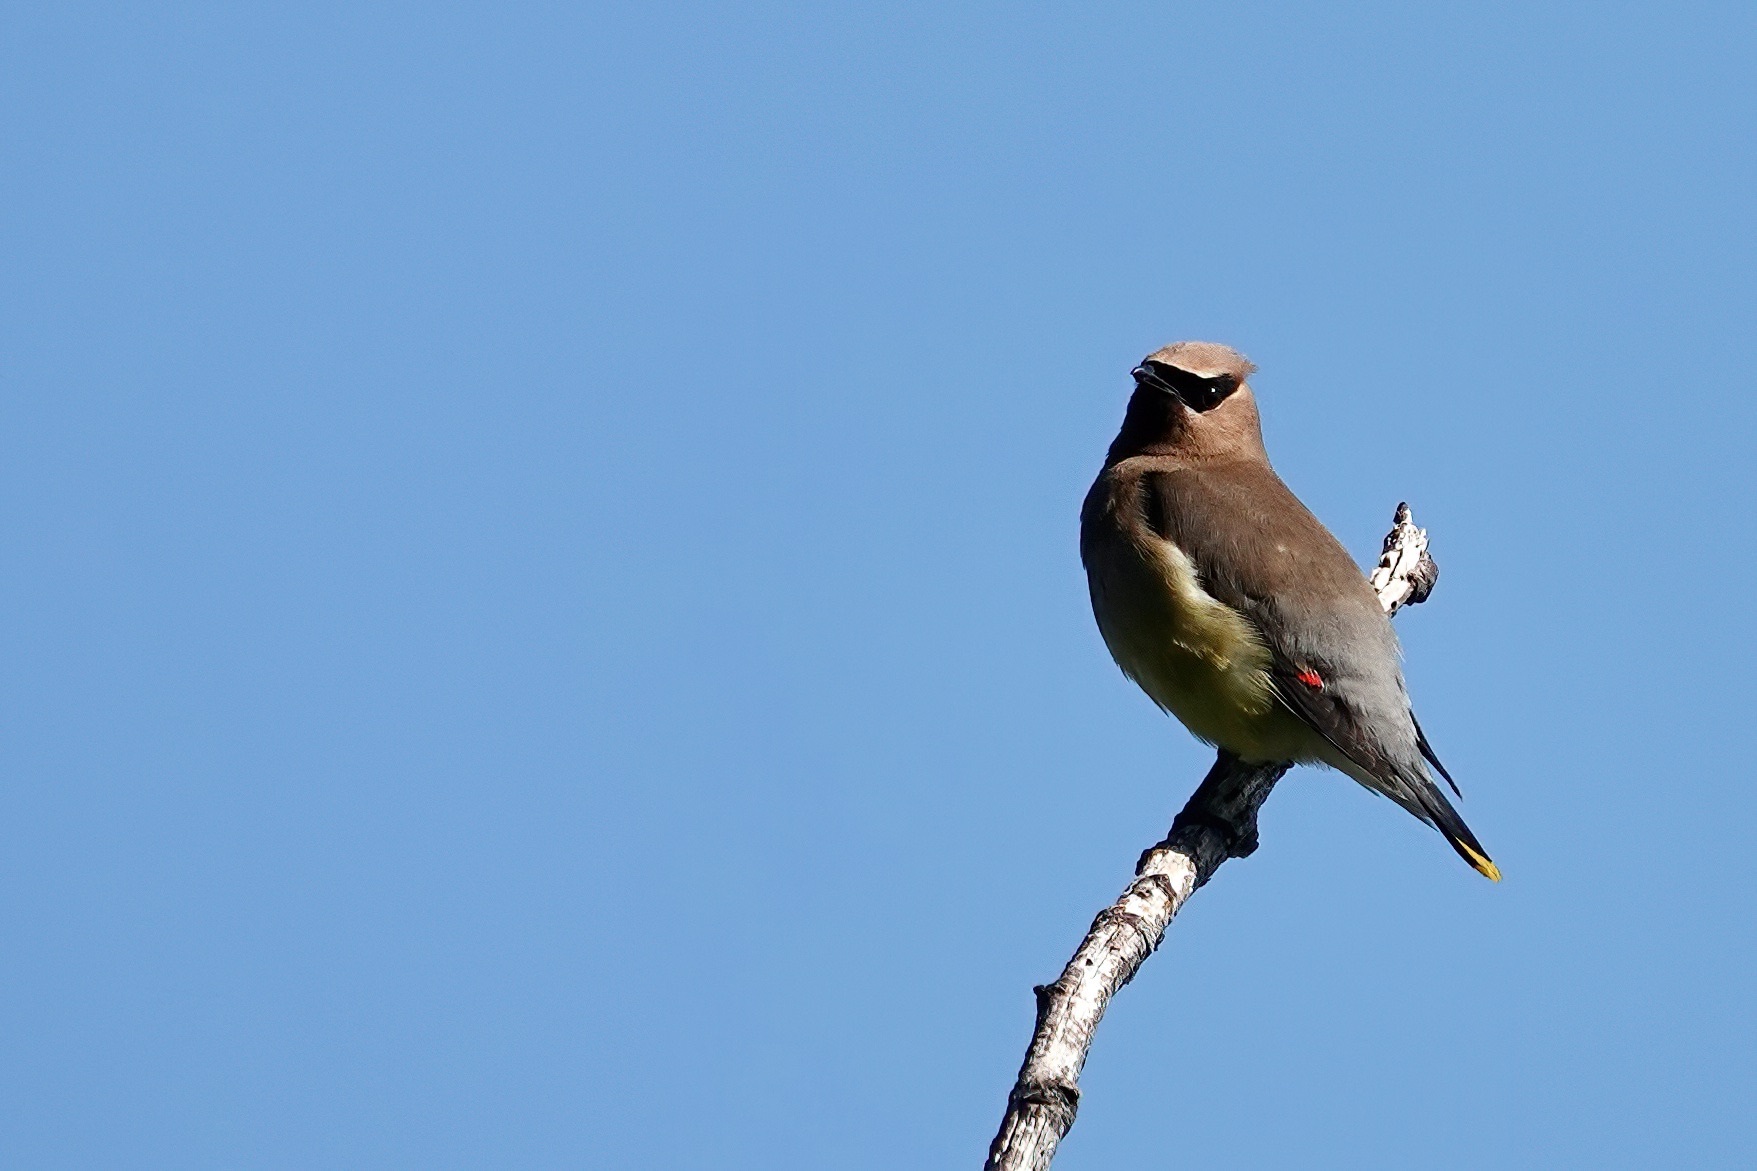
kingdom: Animalia
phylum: Chordata
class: Aves
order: Passeriformes
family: Bombycillidae
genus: Bombycilla
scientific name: Bombycilla cedrorum
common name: Cedar waxwing
